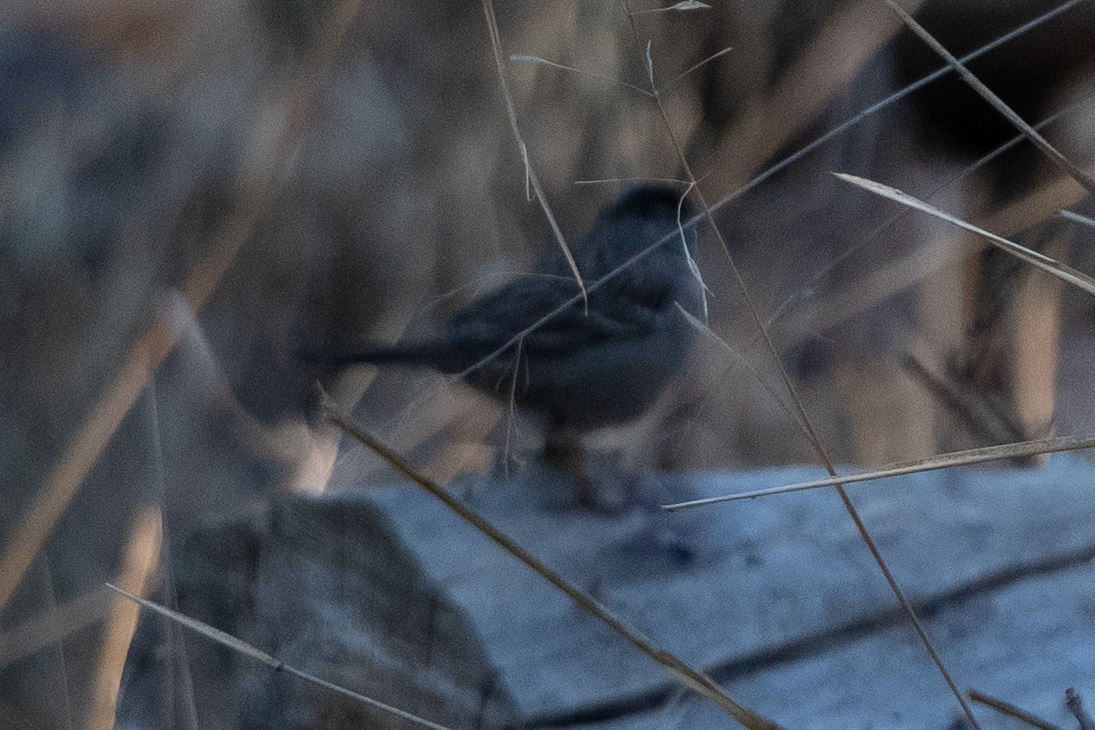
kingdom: Animalia
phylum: Chordata
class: Aves
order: Passeriformes
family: Passerellidae
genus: Zonotrichia
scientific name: Zonotrichia atricapilla
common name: Golden-crowned sparrow
